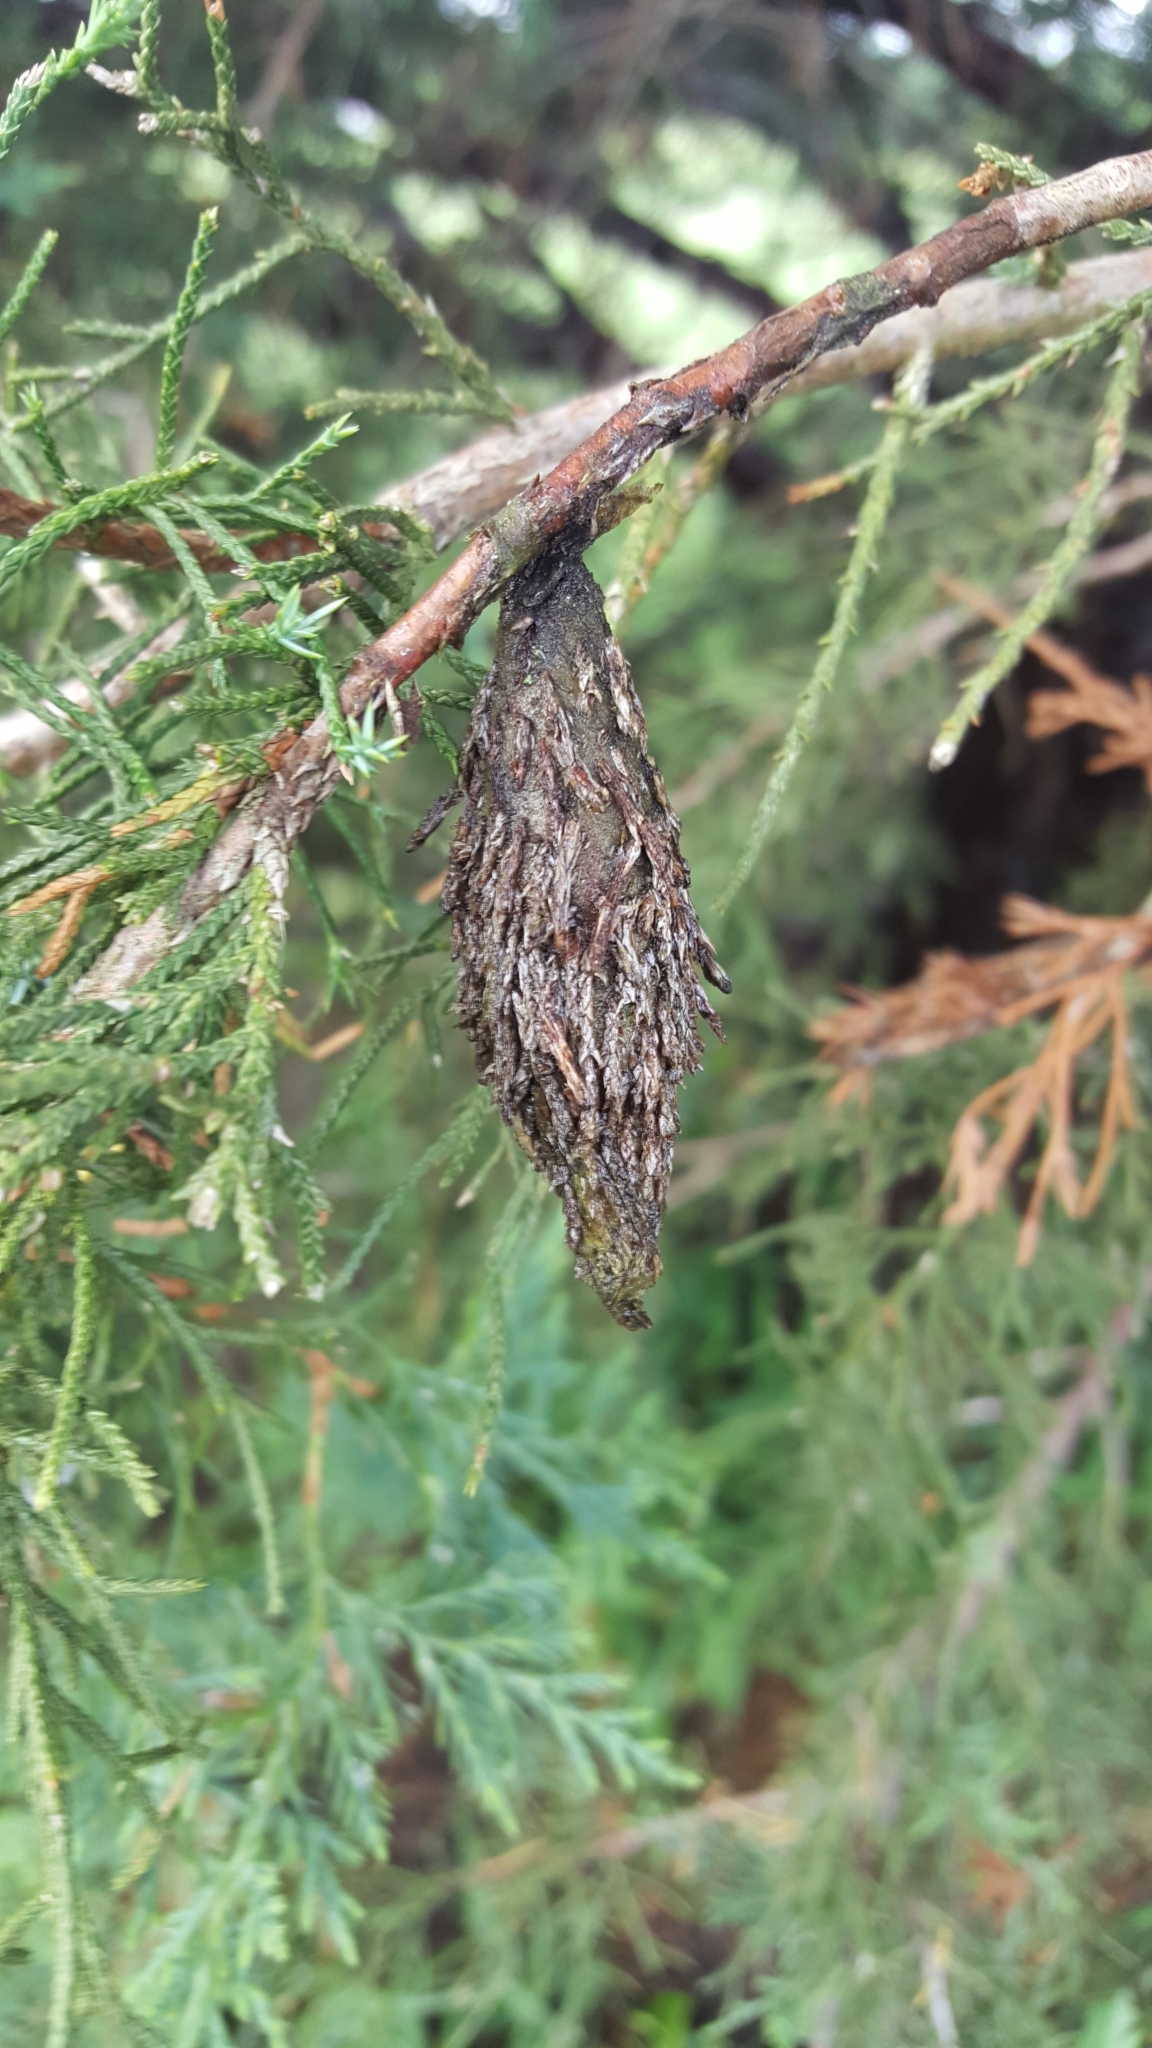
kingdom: Animalia
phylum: Arthropoda
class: Insecta
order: Lepidoptera
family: Psychidae
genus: Thyridopteryx
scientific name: Thyridopteryx ephemeraeformis
